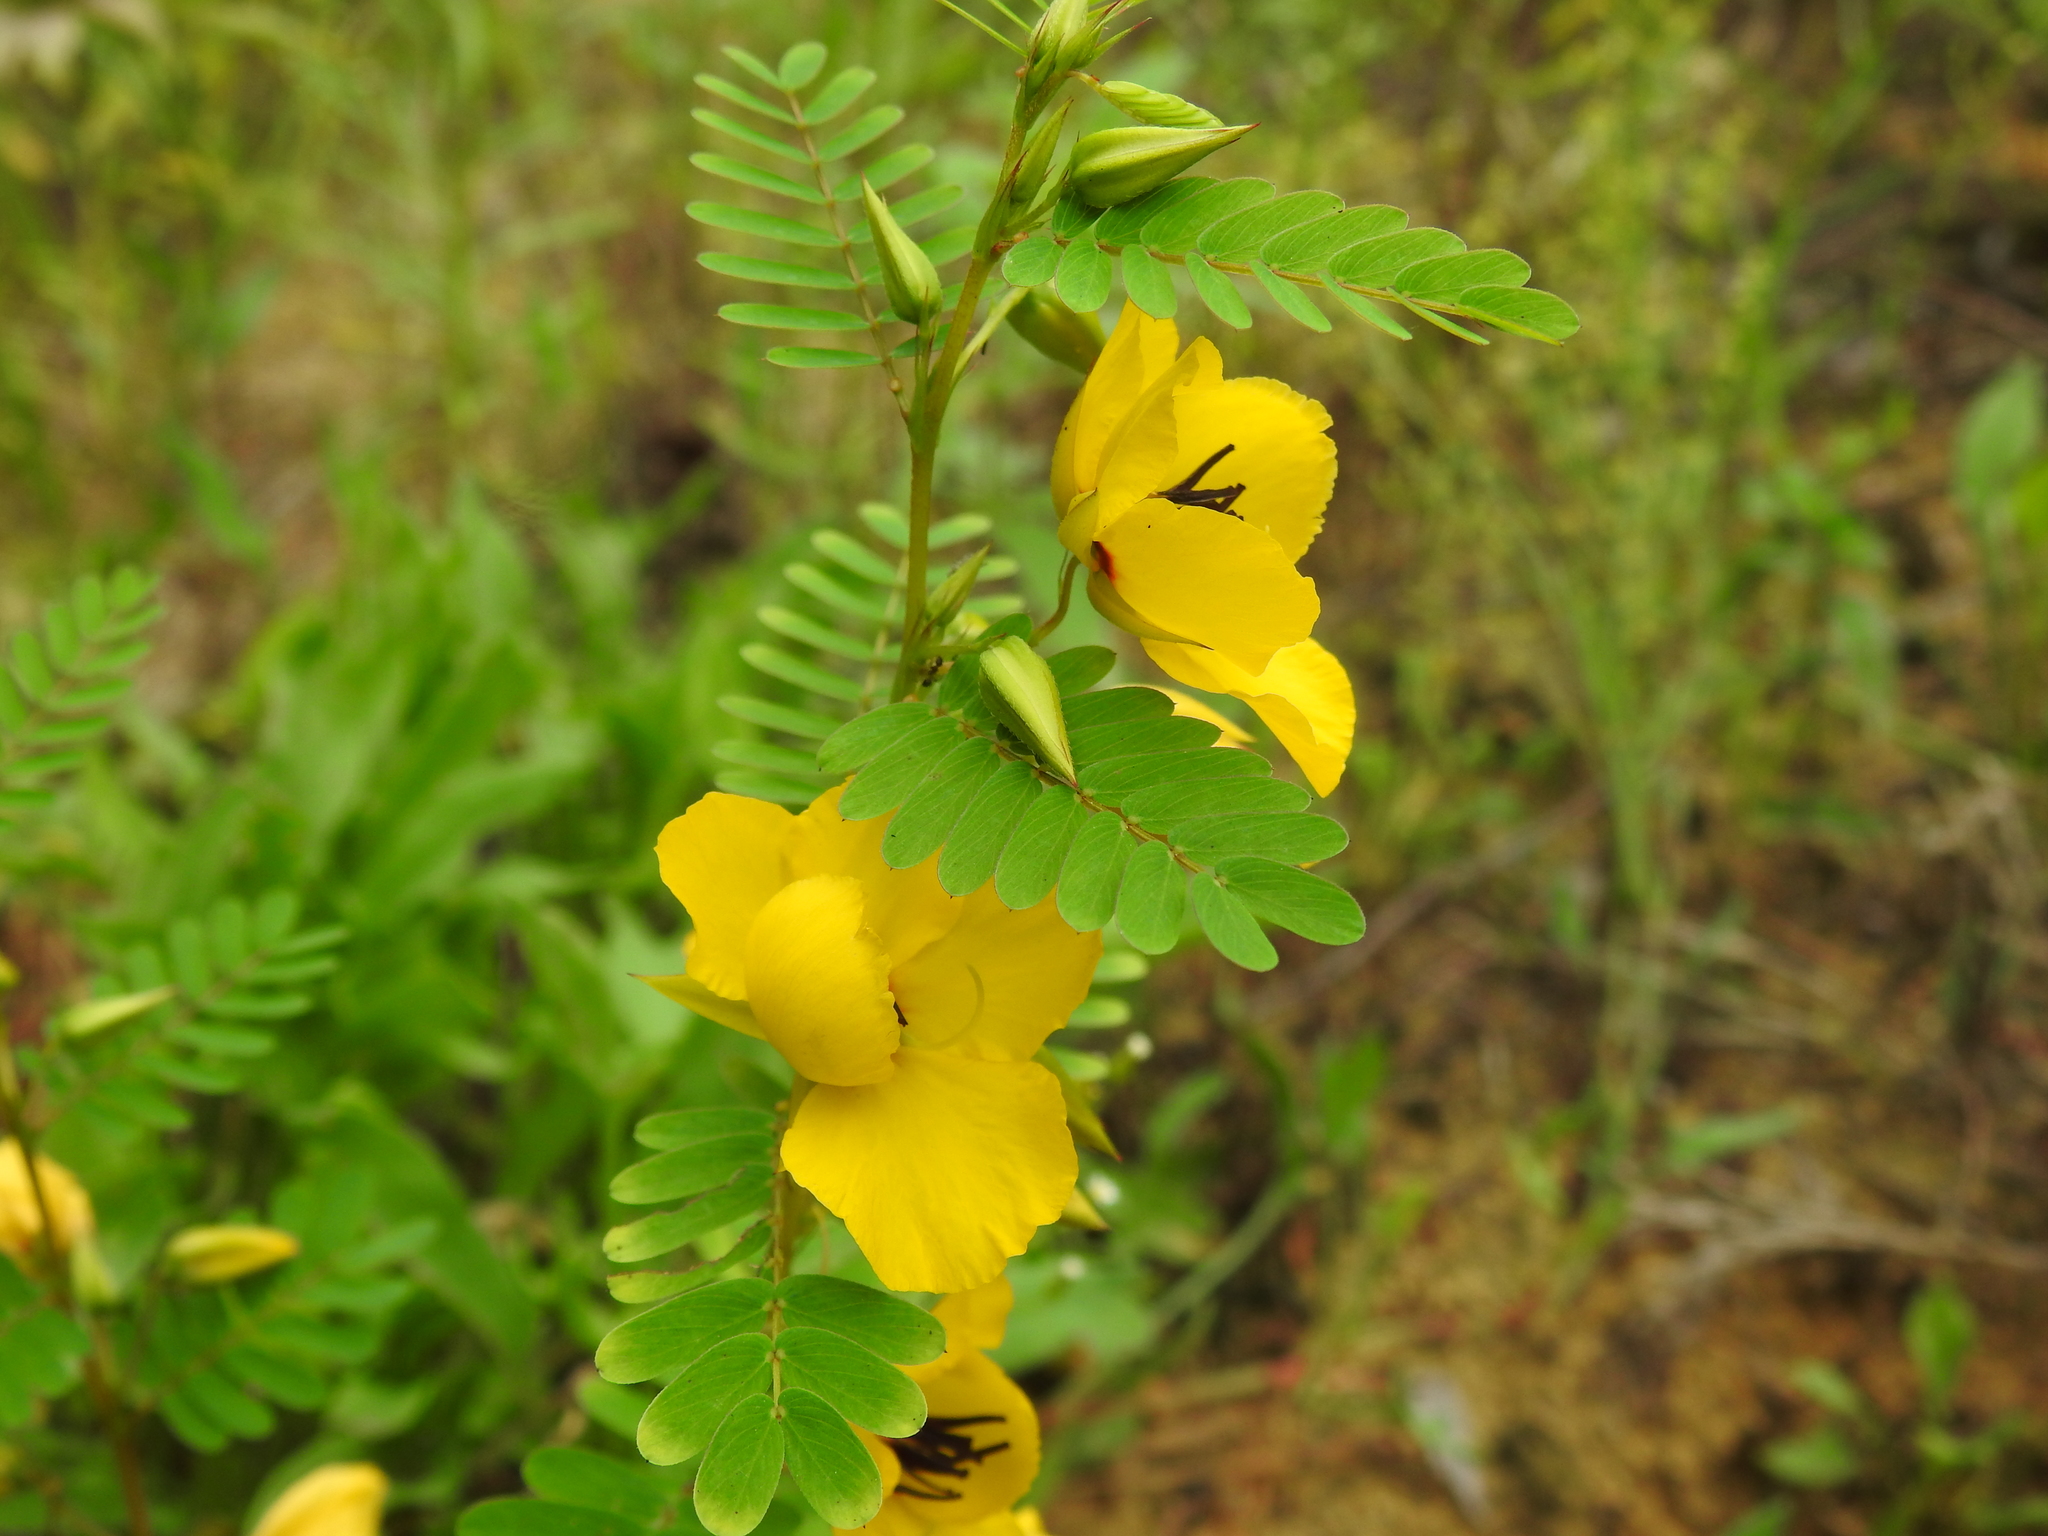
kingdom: Plantae
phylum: Tracheophyta
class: Magnoliopsida
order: Fabales
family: Fabaceae
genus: Chamaecrista
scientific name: Chamaecrista fasciculata
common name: Golden cassia
